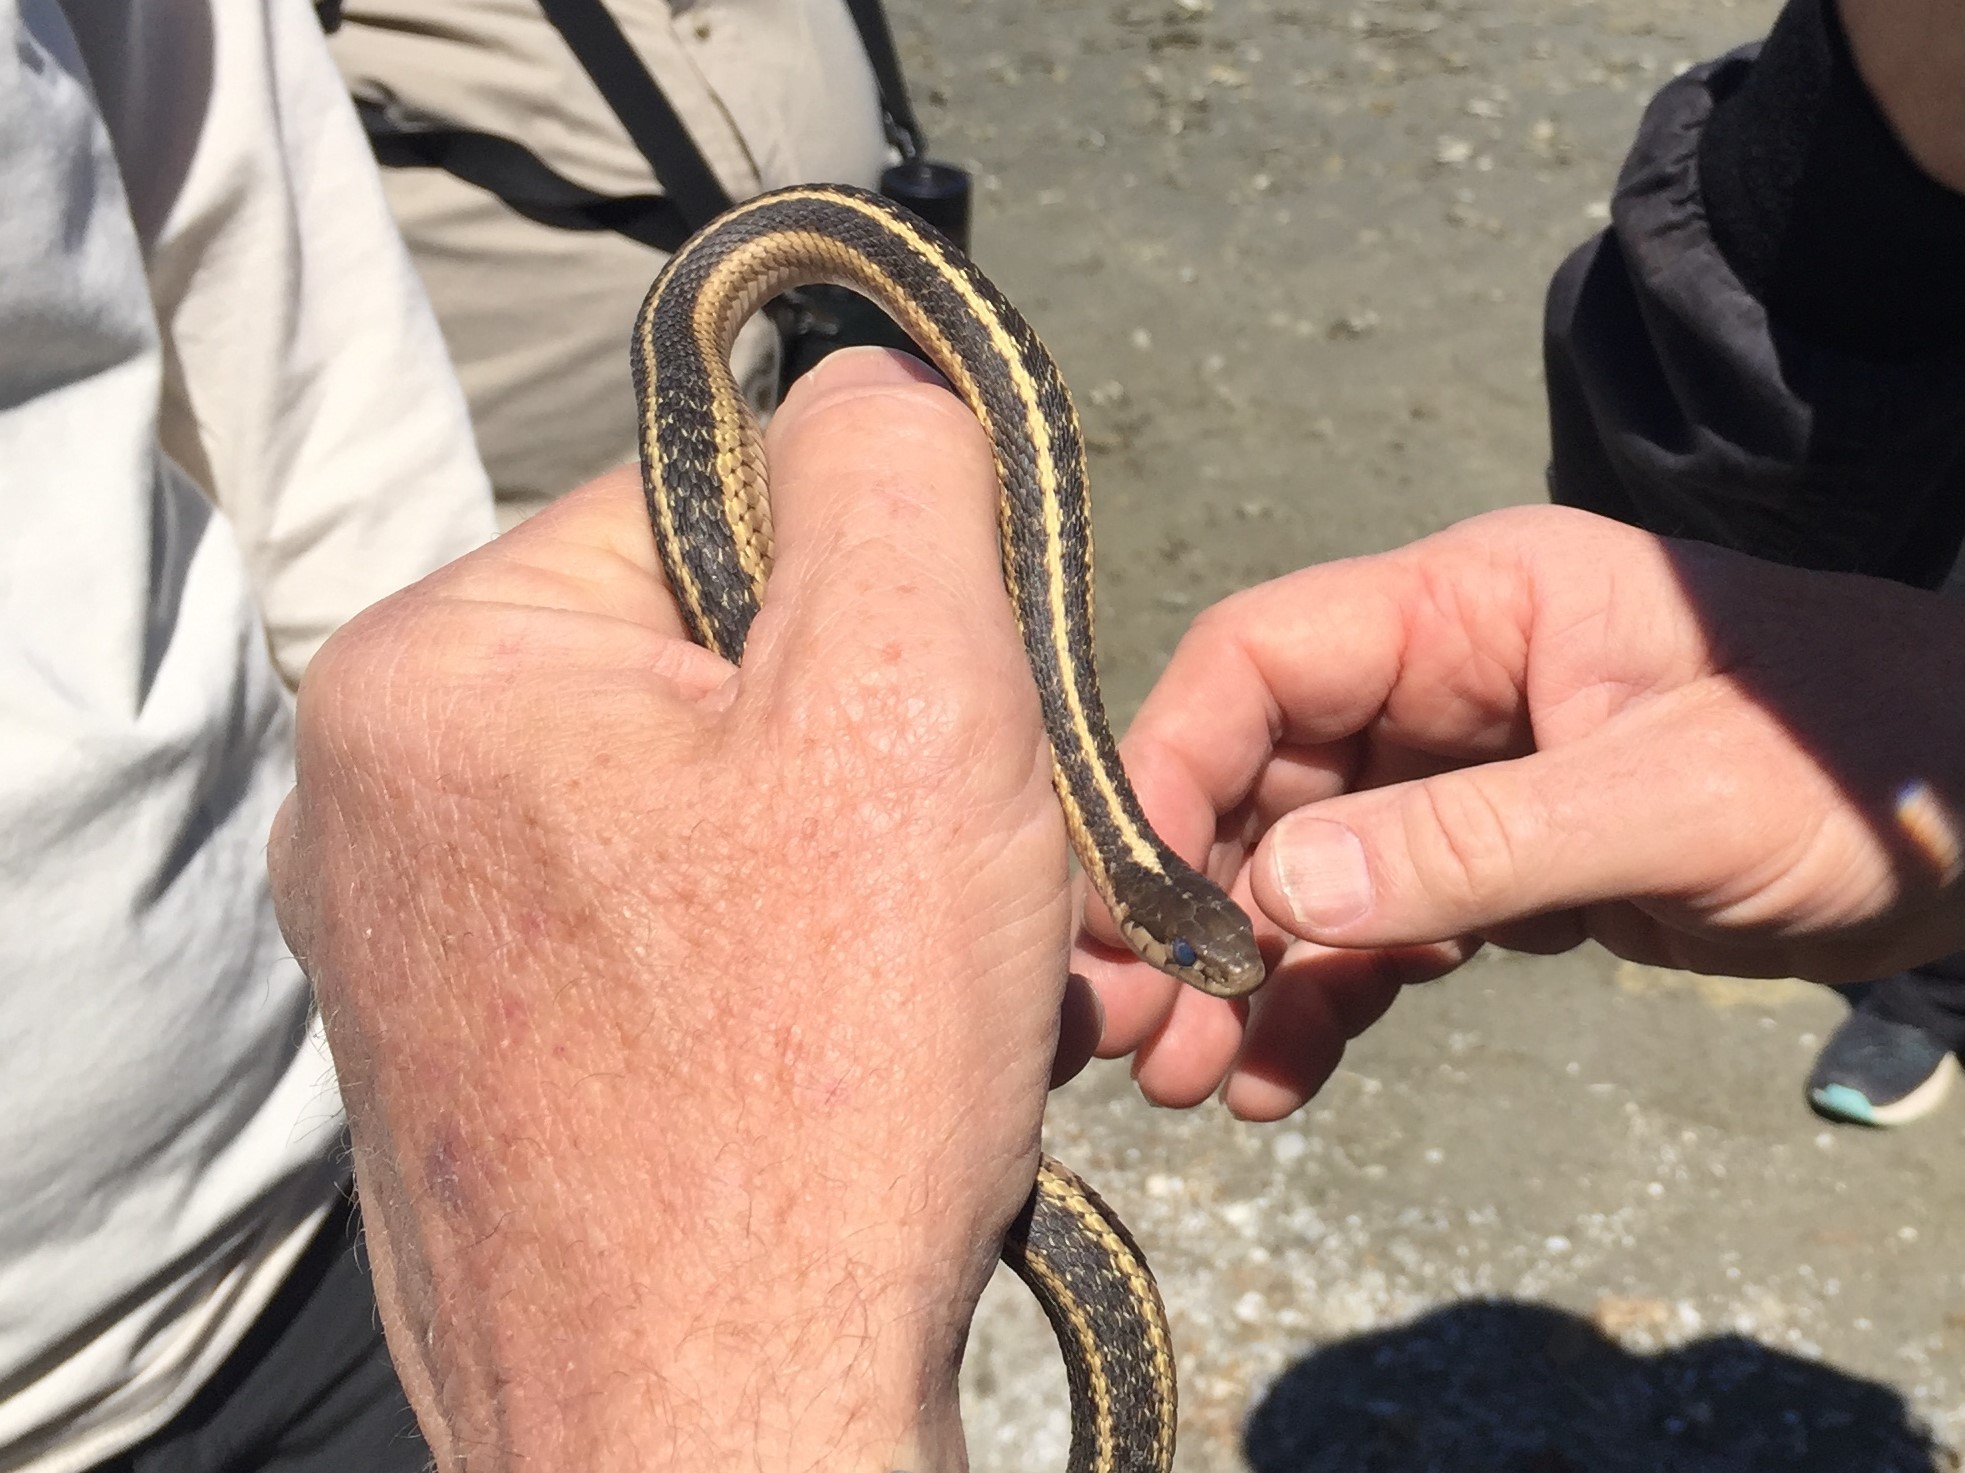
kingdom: Animalia
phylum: Chordata
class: Squamata
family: Colubridae
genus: Thamnophis
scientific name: Thamnophis elegans
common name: Western terrestrial garter snake
